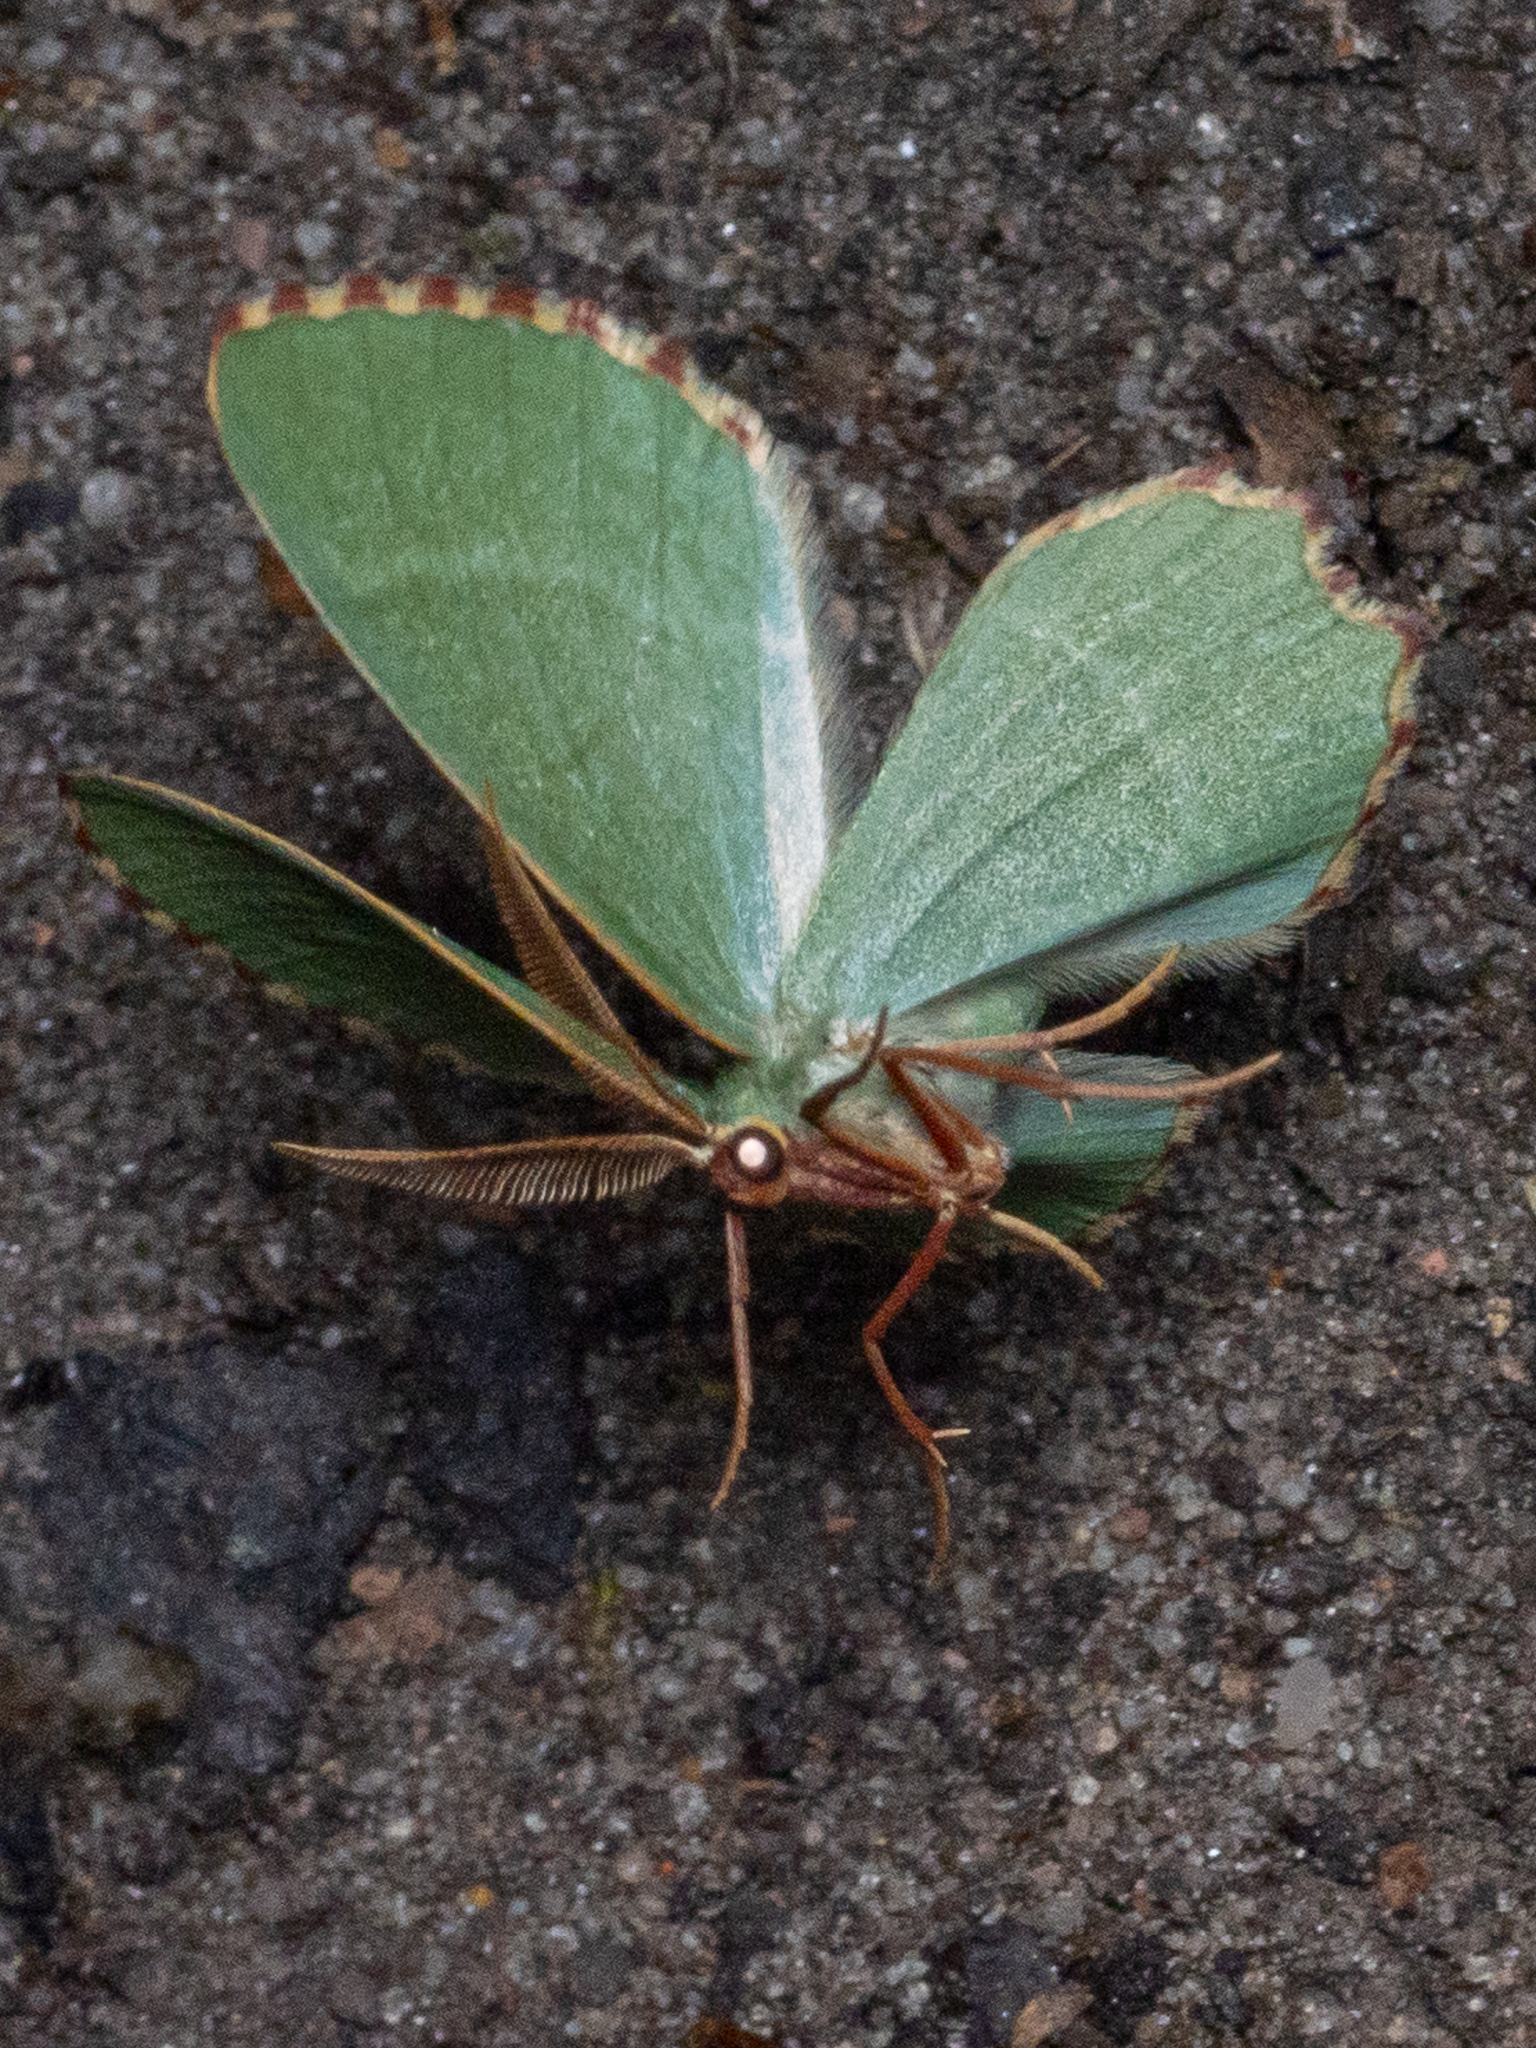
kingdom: Animalia
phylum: Arthropoda
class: Insecta
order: Lepidoptera
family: Geometridae
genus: Thalera
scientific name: Thalera fimbrialis
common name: Sussex emerald
